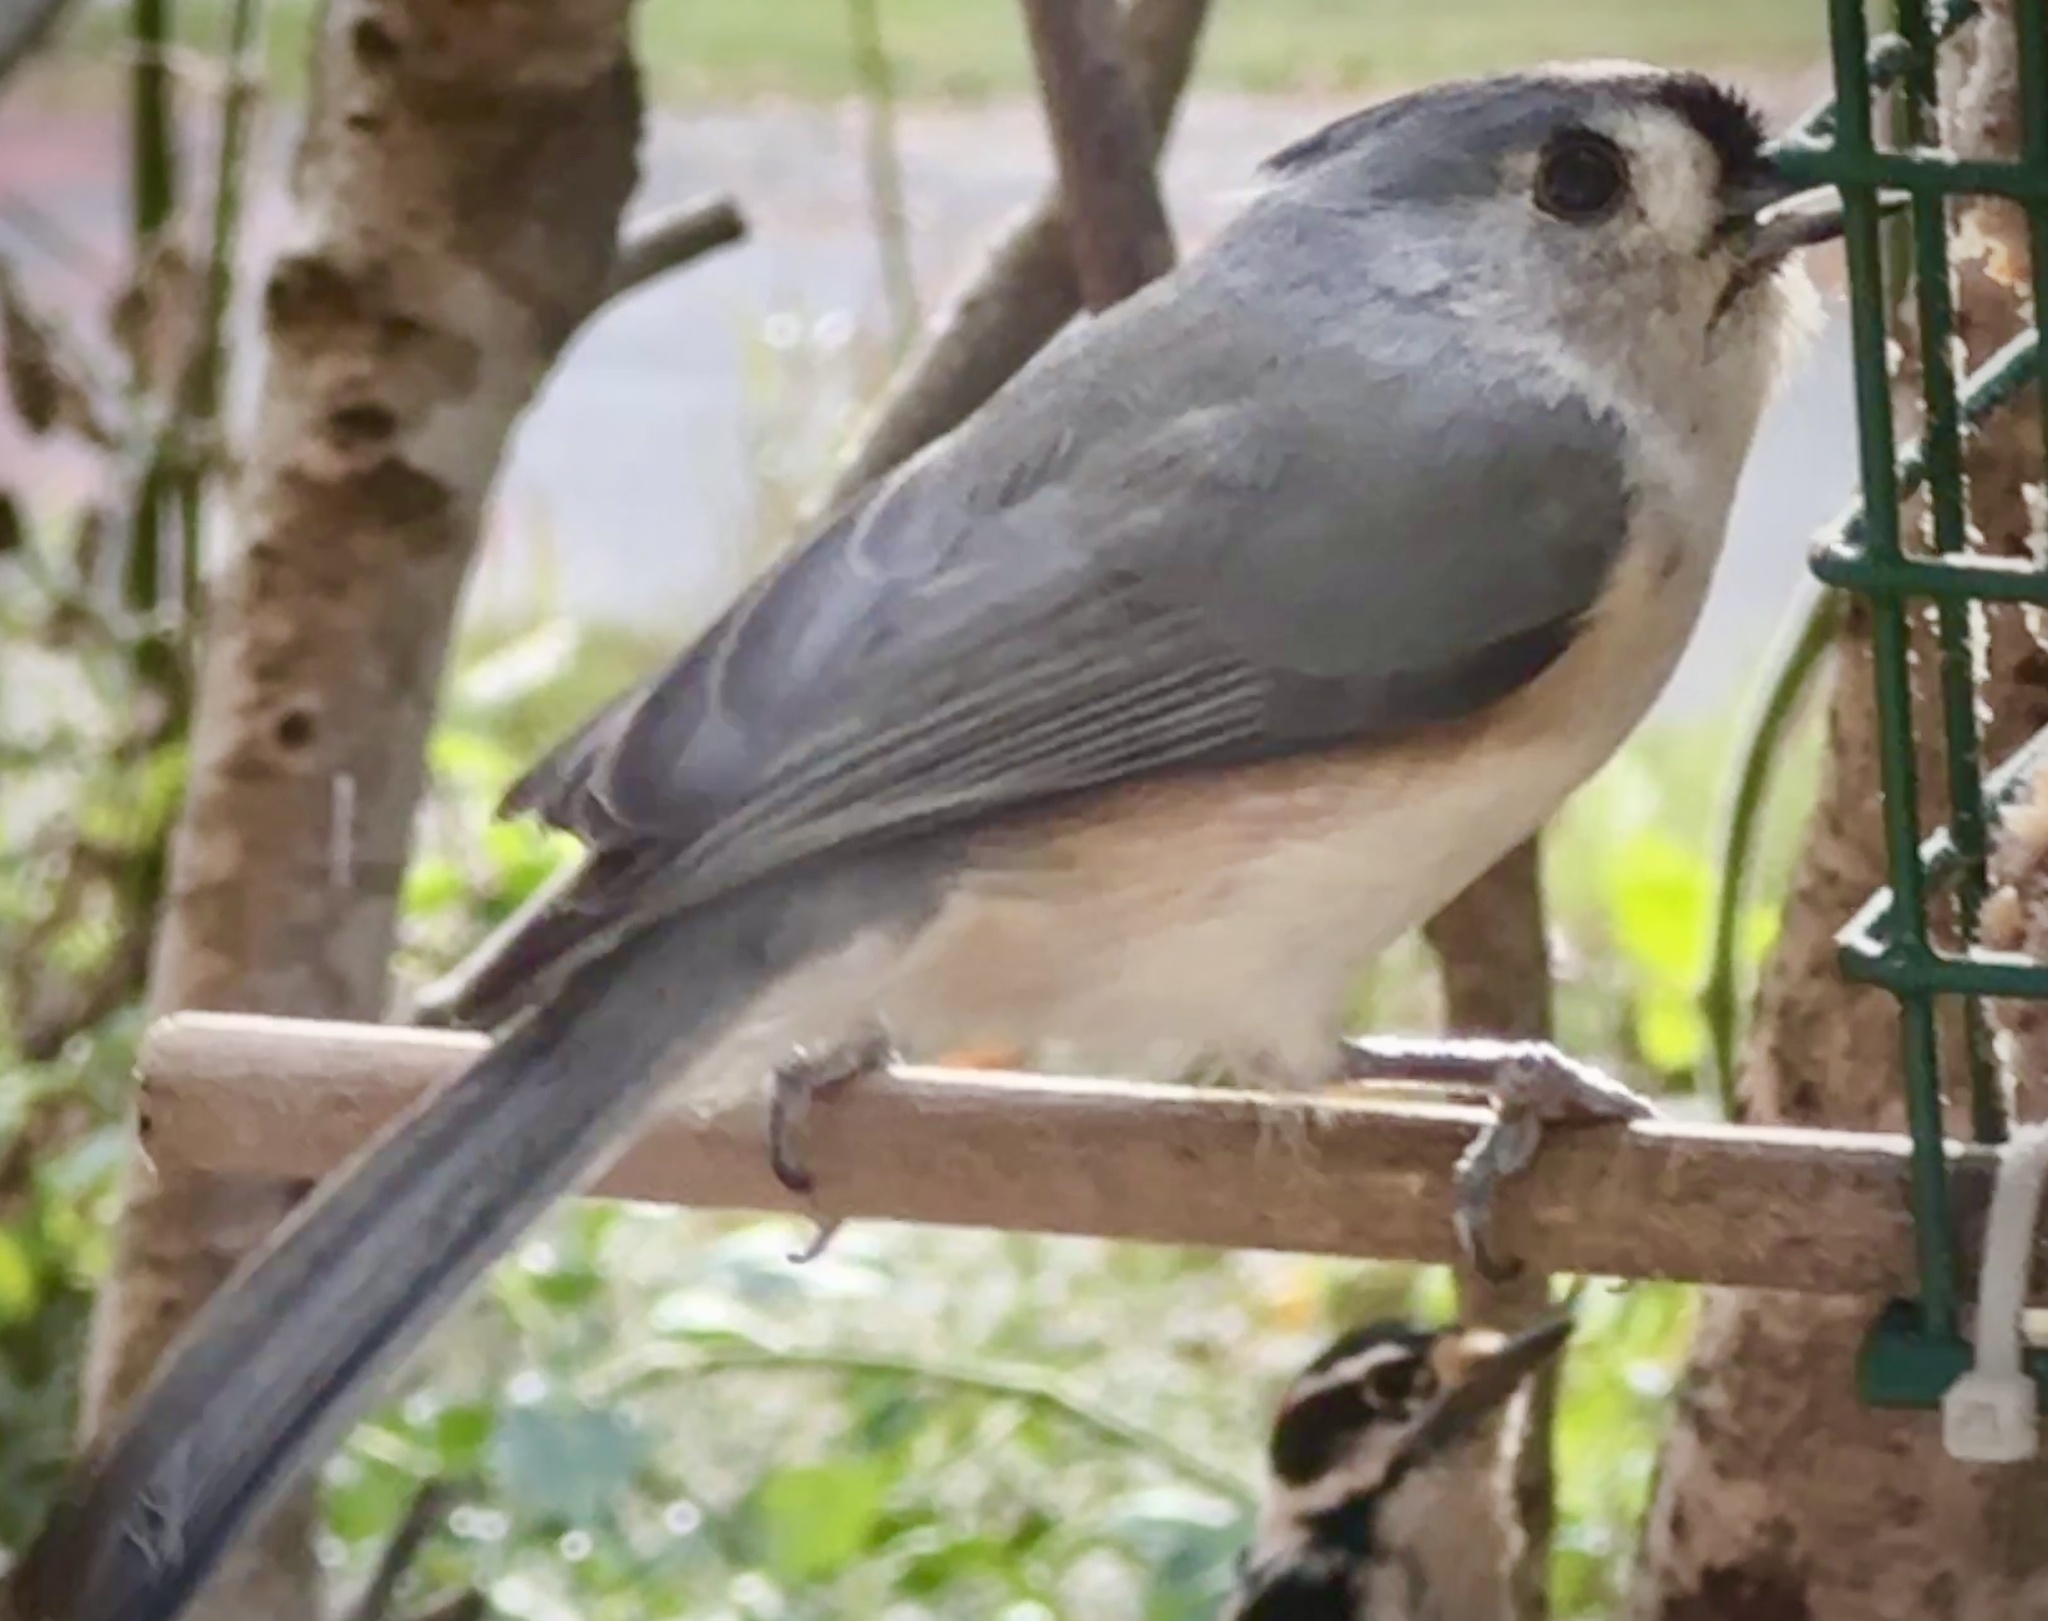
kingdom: Animalia
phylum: Chordata
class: Aves
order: Passeriformes
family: Paridae
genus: Baeolophus
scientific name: Baeolophus bicolor
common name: Tufted titmouse
